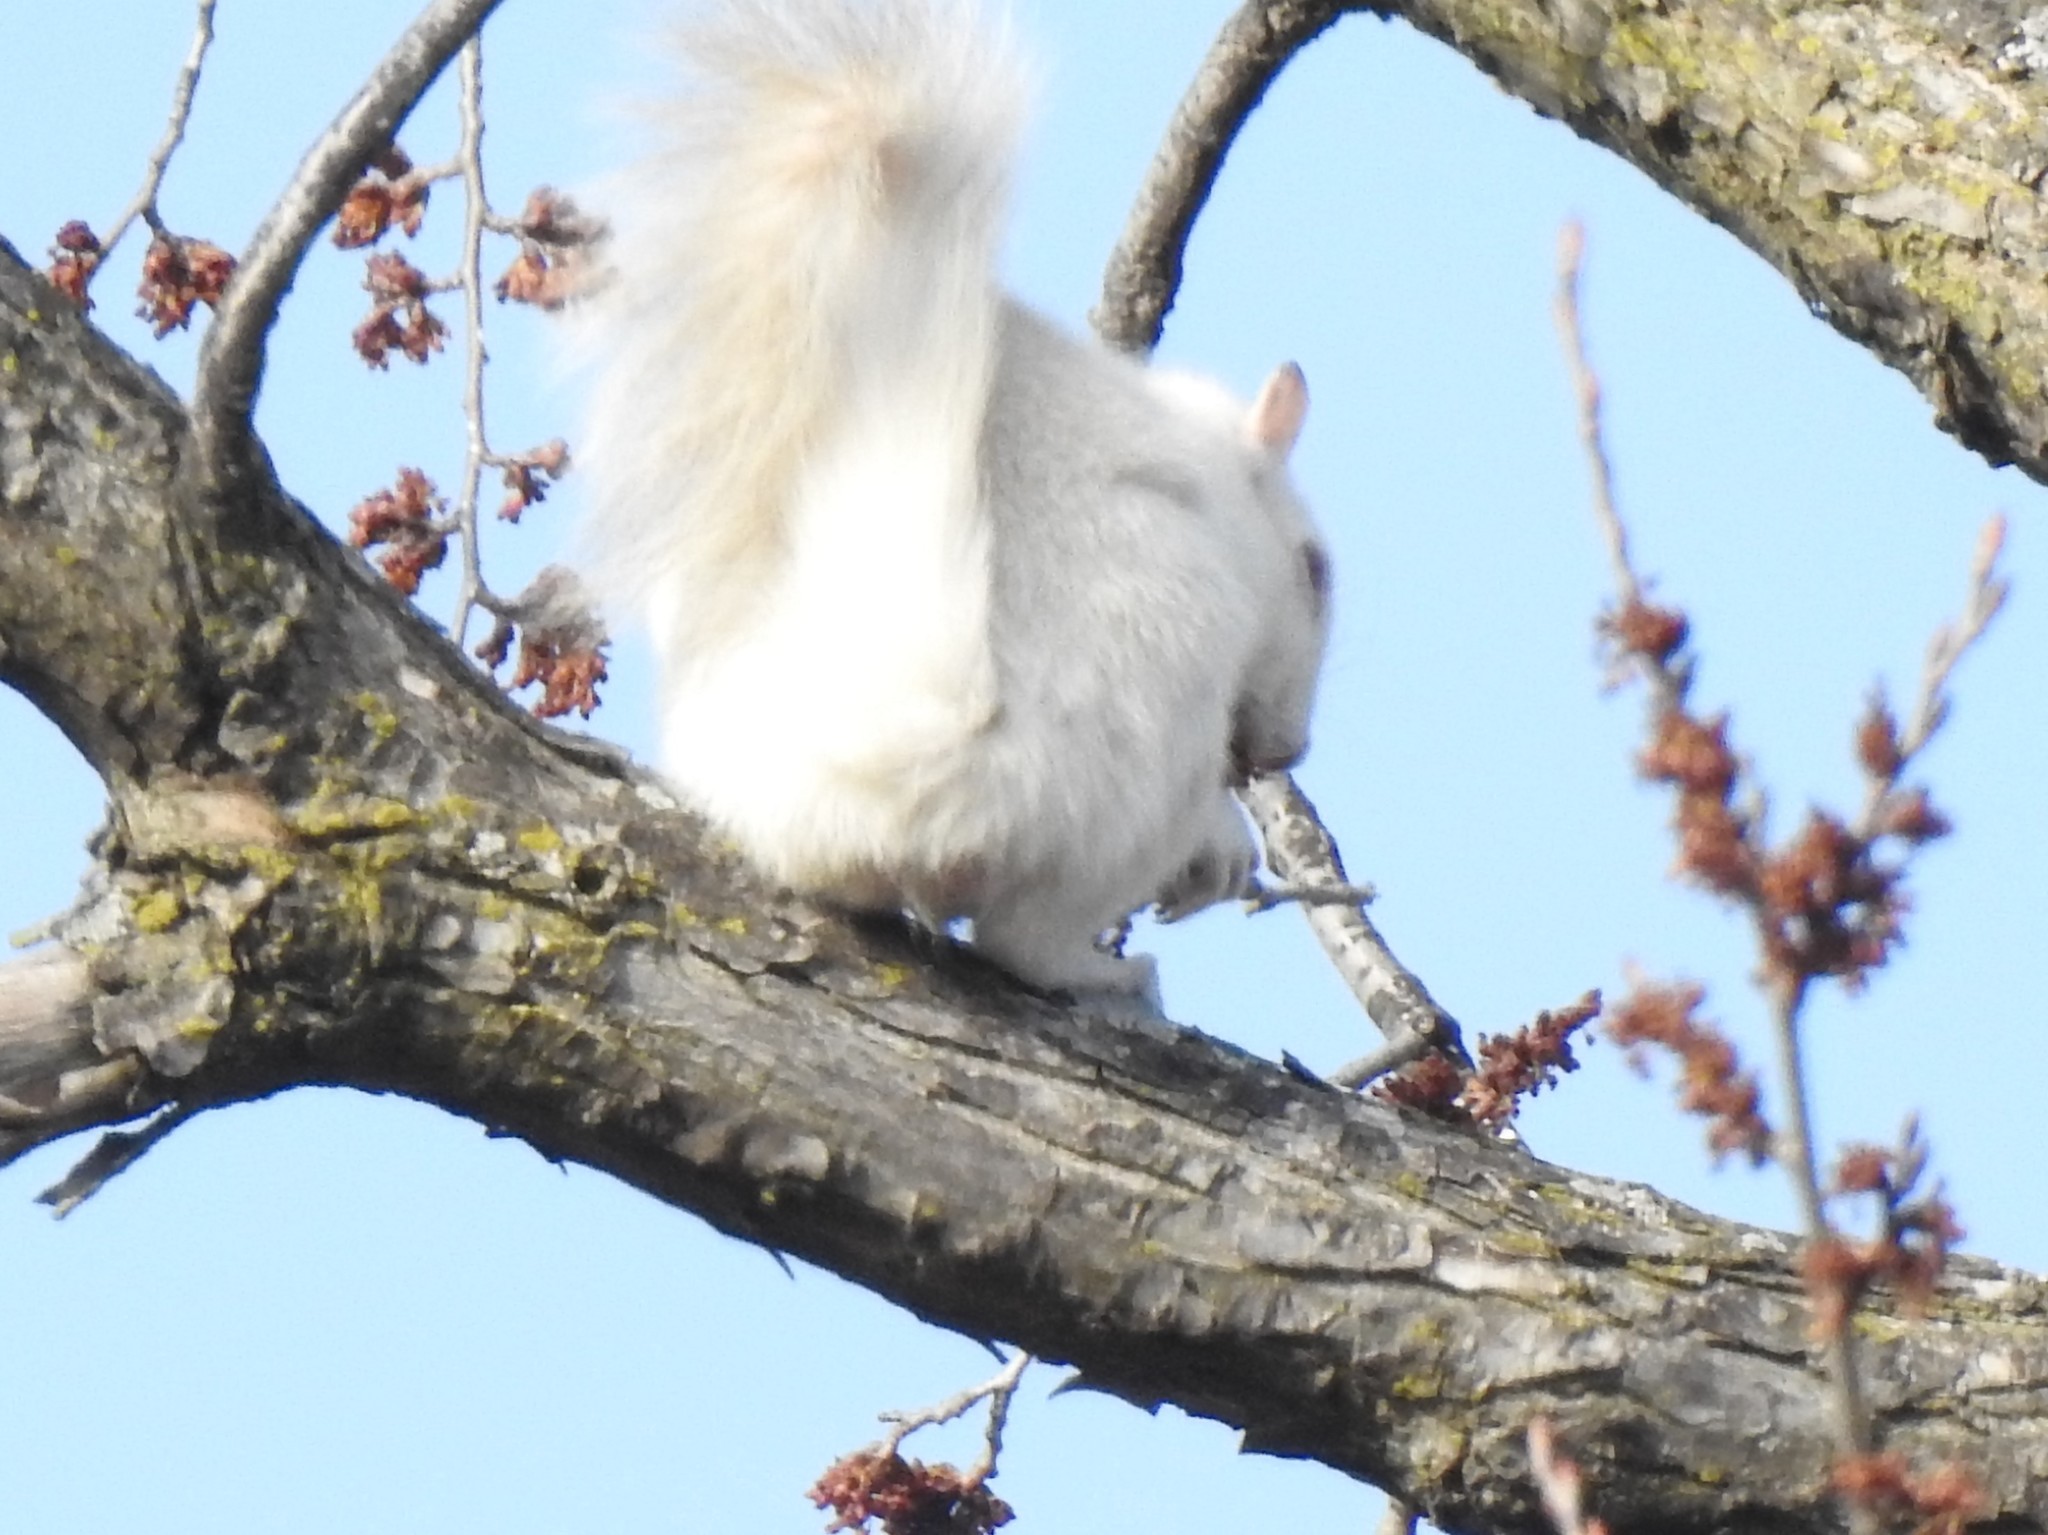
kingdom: Animalia
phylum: Chordata
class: Mammalia
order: Rodentia
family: Sciuridae
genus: Sciurus
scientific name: Sciurus carolinensis
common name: Eastern gray squirrel
